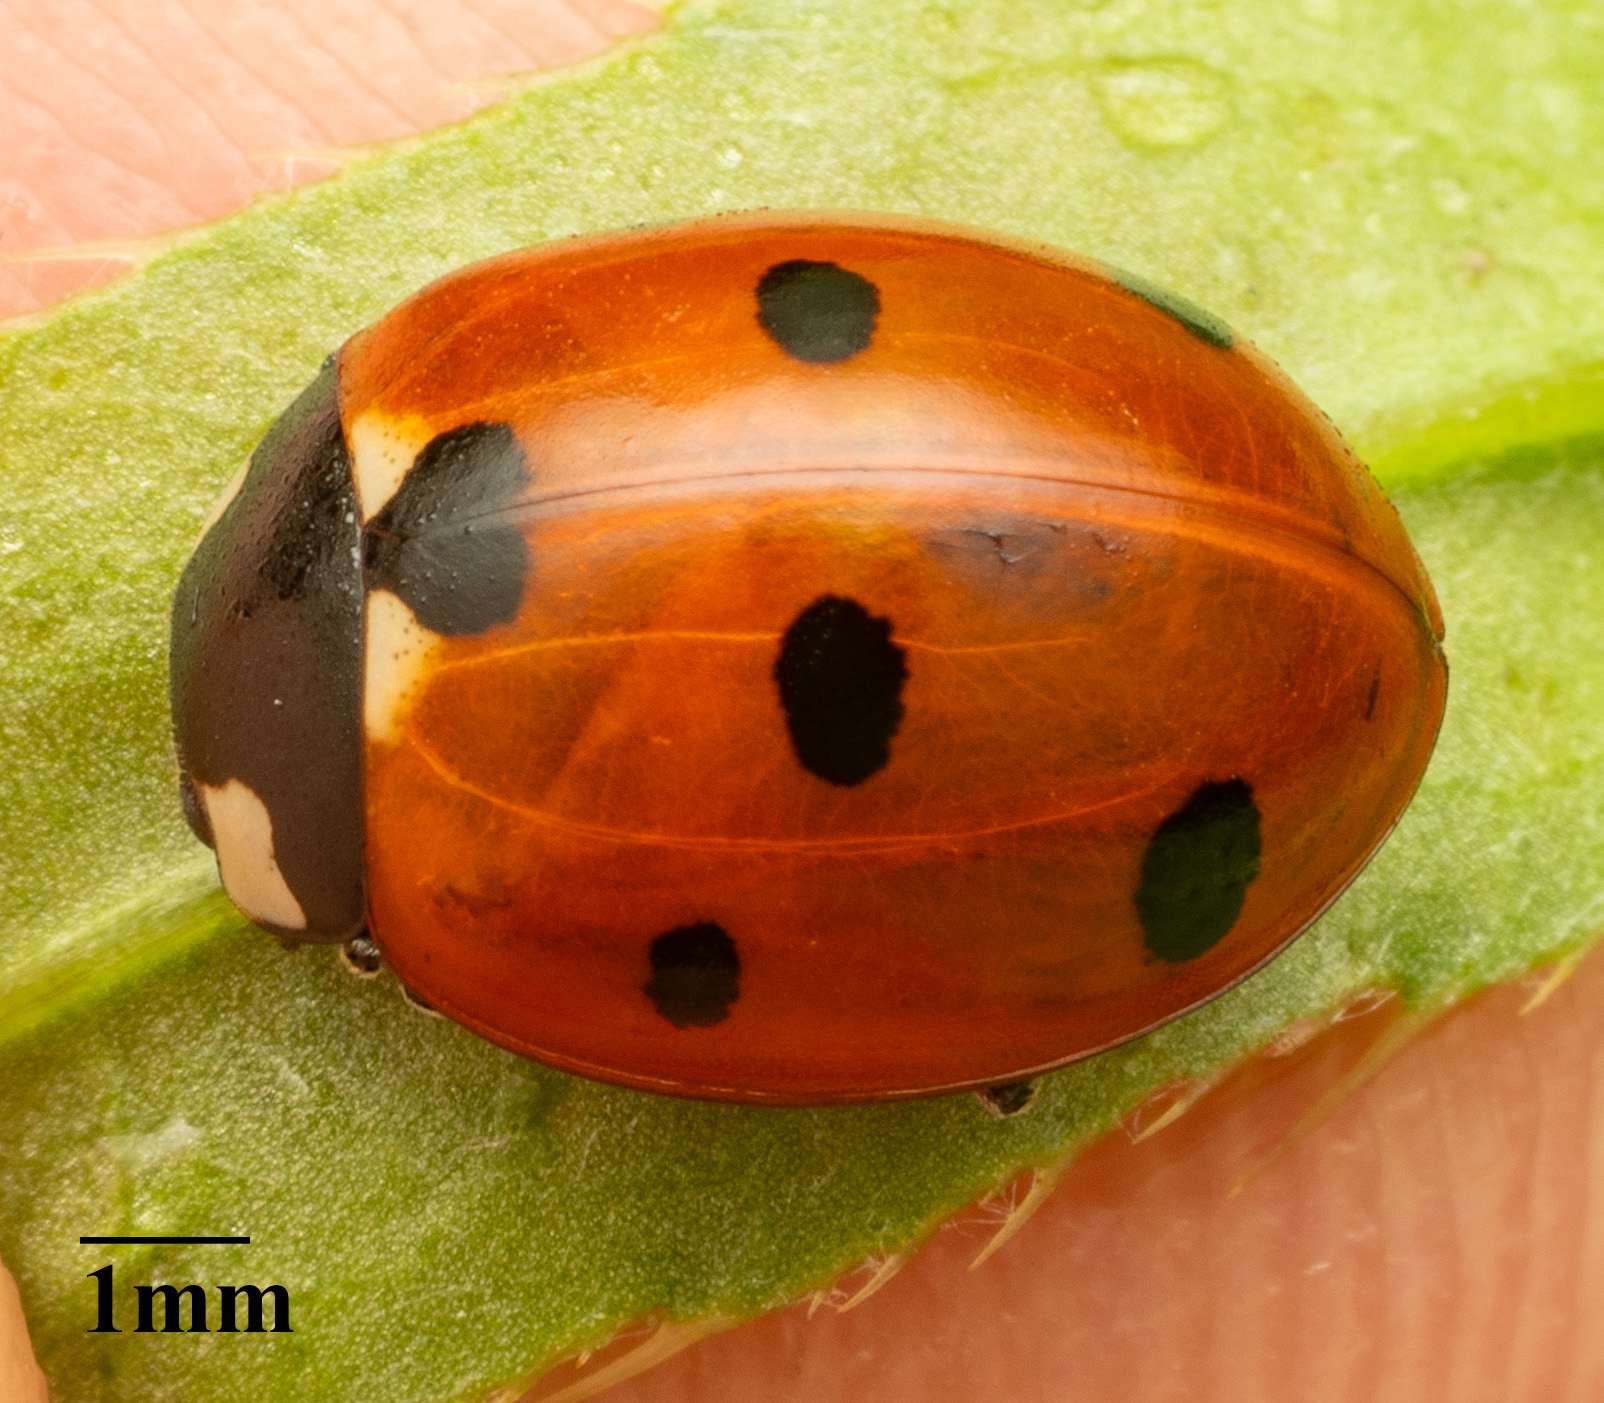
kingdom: Animalia
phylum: Arthropoda
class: Insecta
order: Coleoptera
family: Coccinellidae
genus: Coccinella
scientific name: Coccinella septempunctata
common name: Sevenspotted lady beetle
